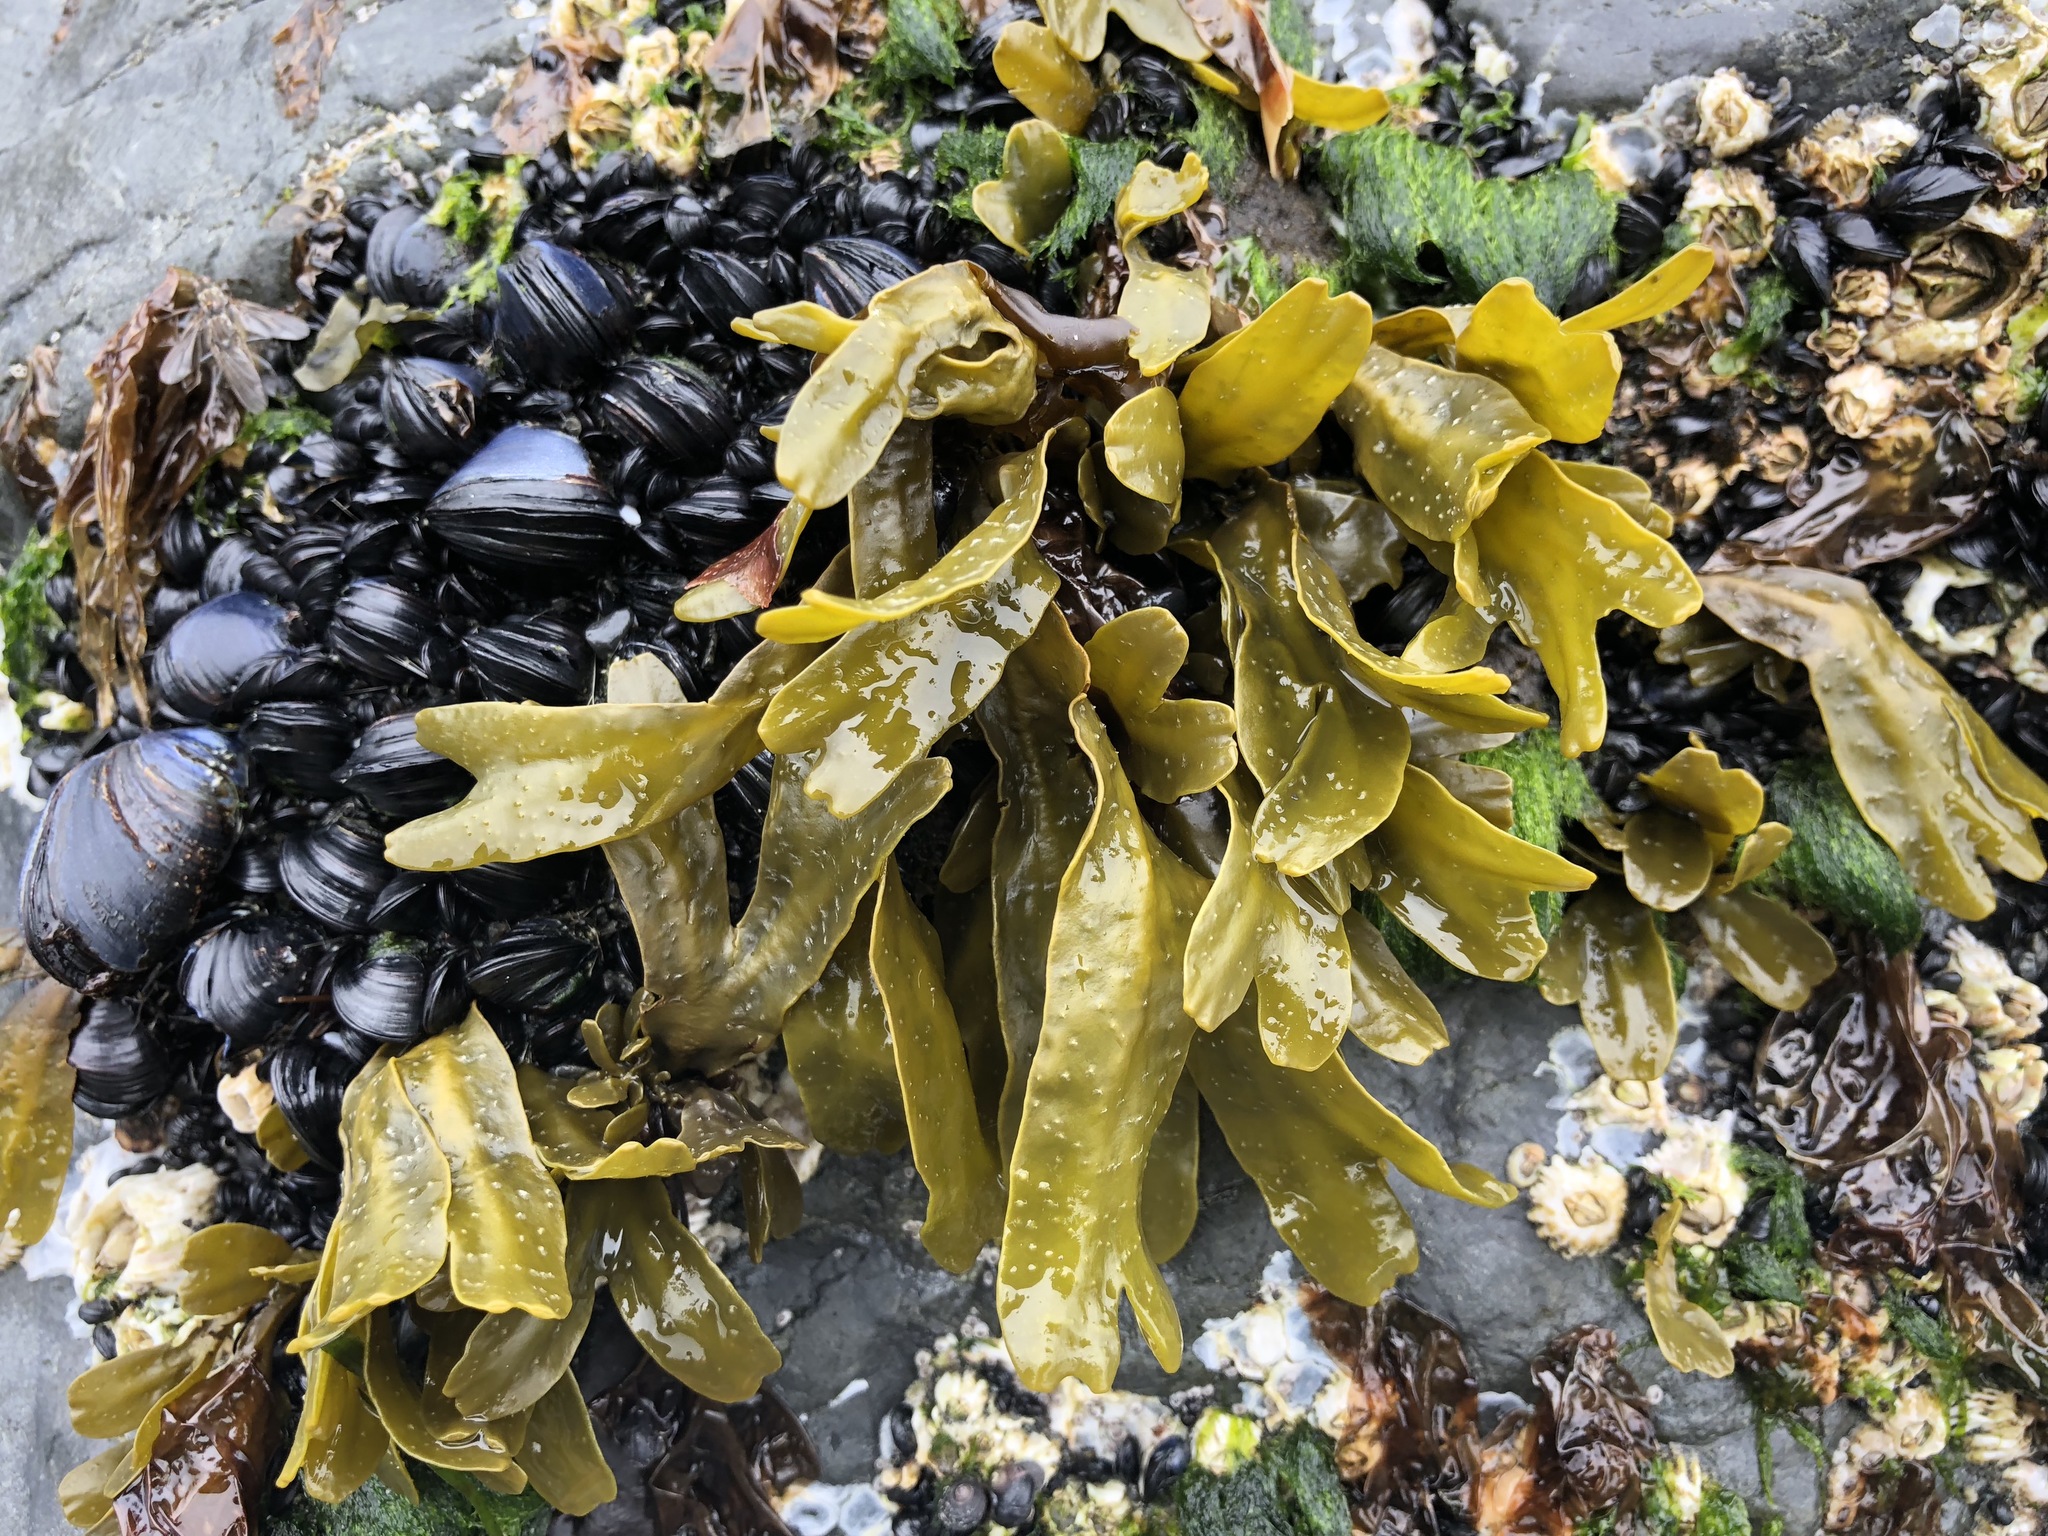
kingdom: Chromista
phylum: Ochrophyta
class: Phaeophyceae
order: Fucales
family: Fucaceae
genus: Fucus
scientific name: Fucus distichus
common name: Rockweed
